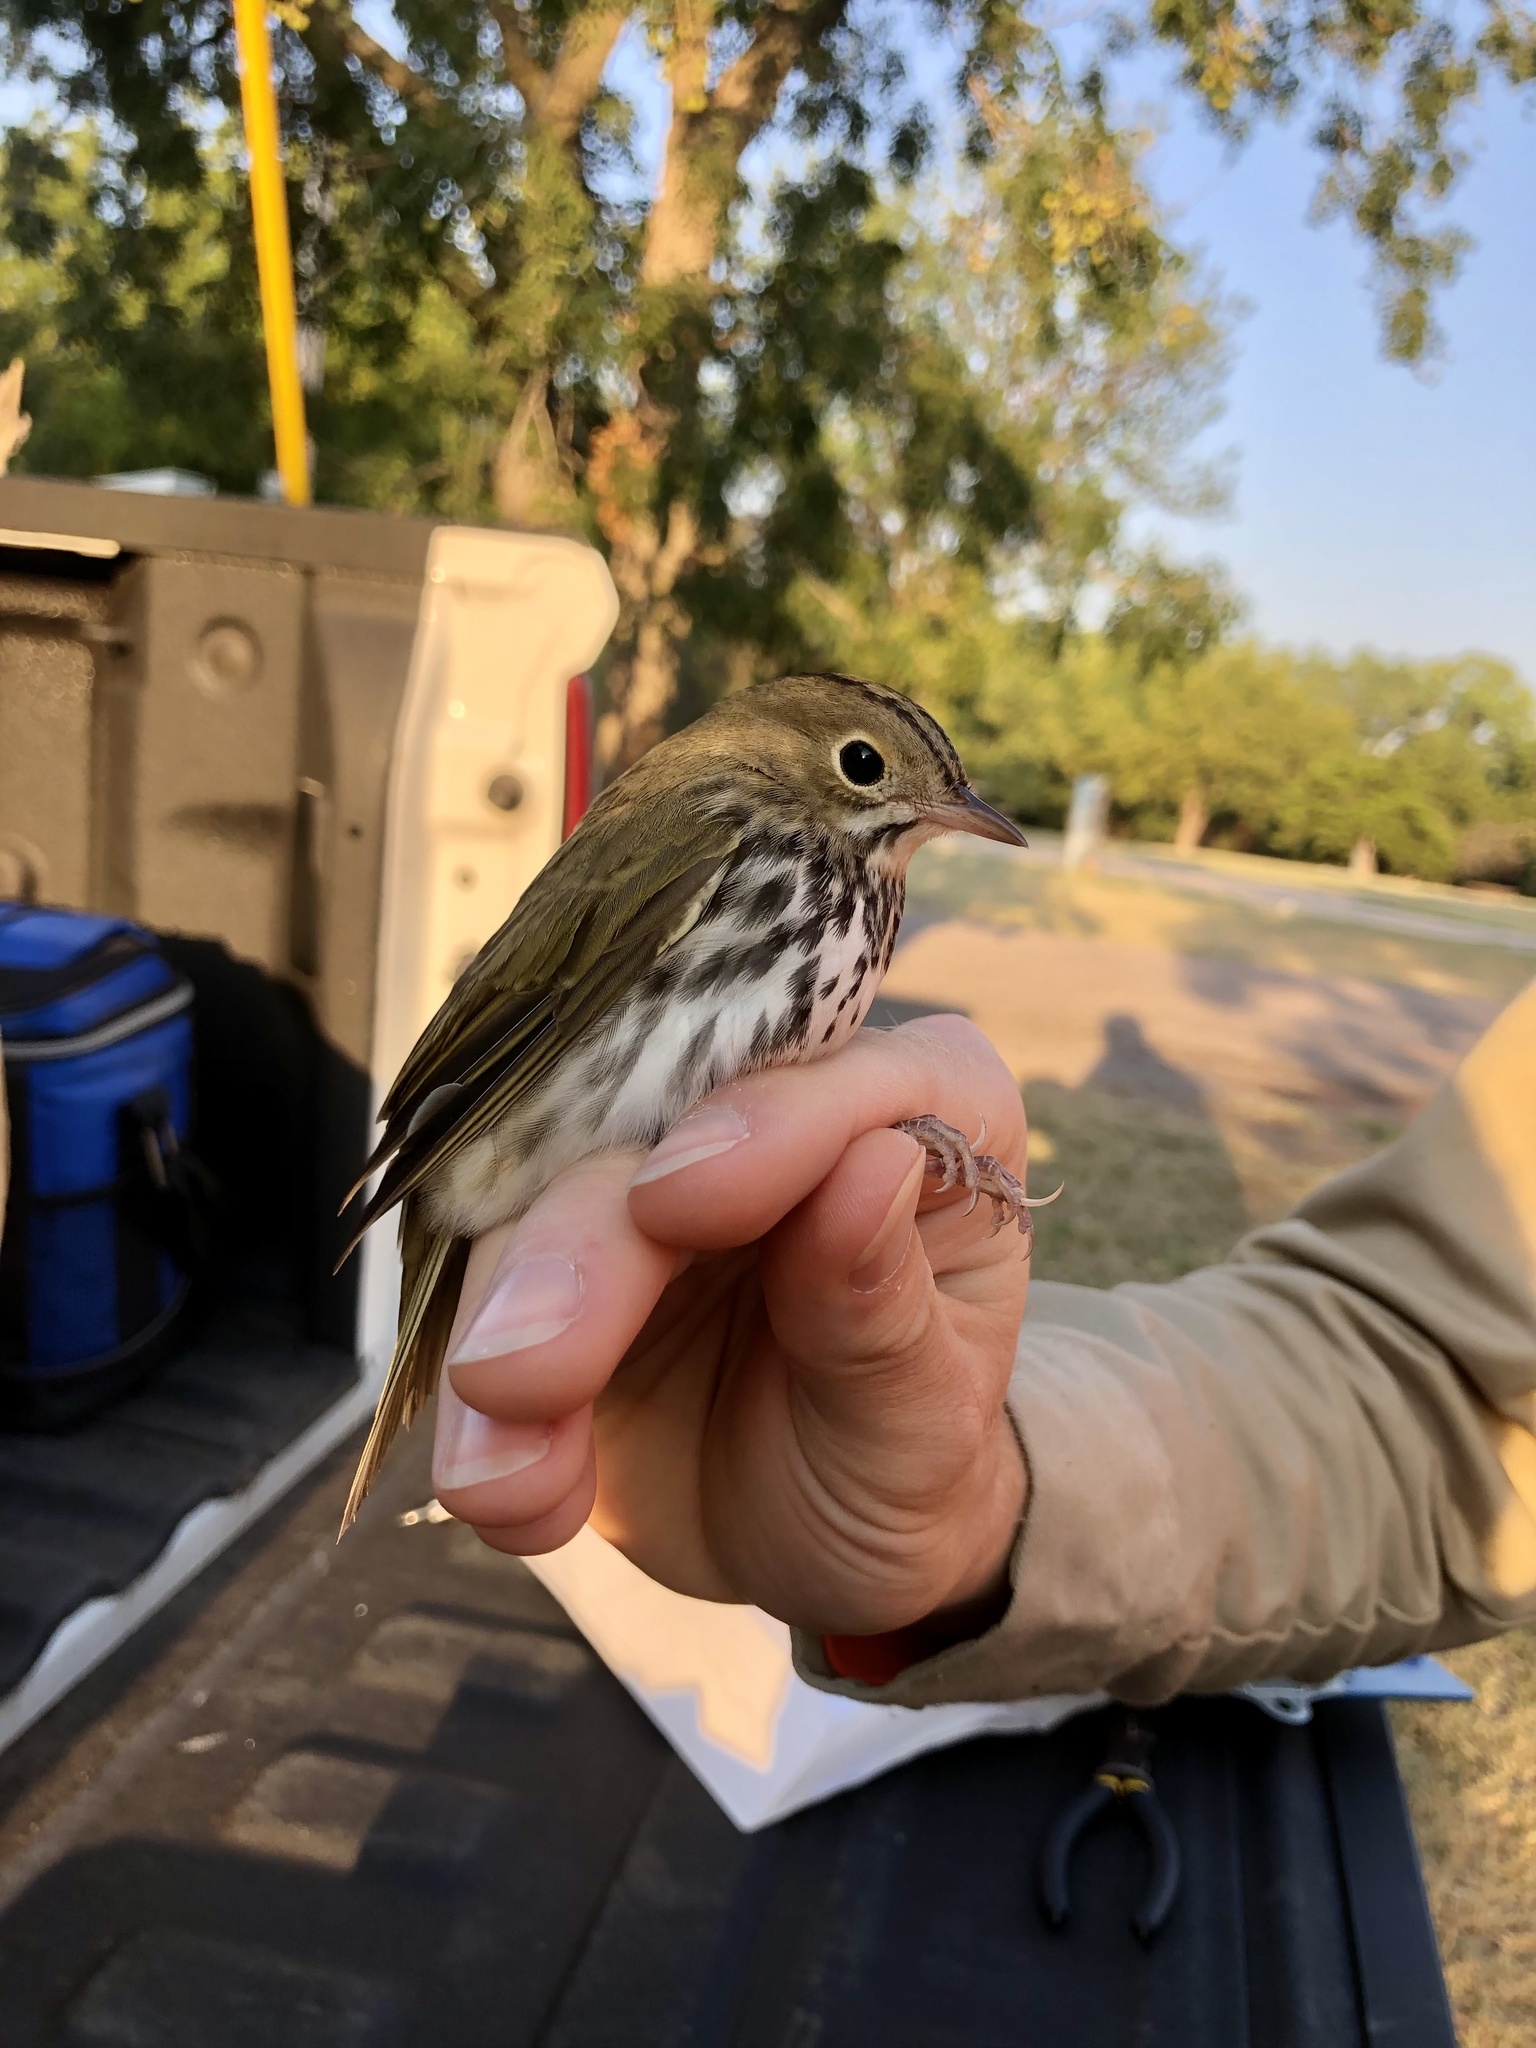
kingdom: Animalia
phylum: Chordata
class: Aves
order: Passeriformes
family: Parulidae
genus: Seiurus
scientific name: Seiurus aurocapilla
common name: Ovenbird
